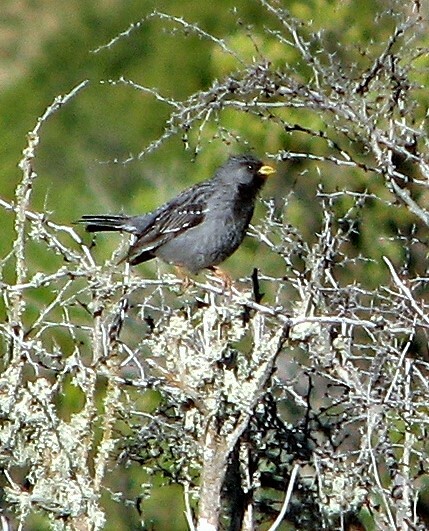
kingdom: Animalia
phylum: Chordata
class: Aves
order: Passeriformes
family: Thraupidae
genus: Rhopospina
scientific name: Rhopospina fruticeti
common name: Mourning sierra finch
